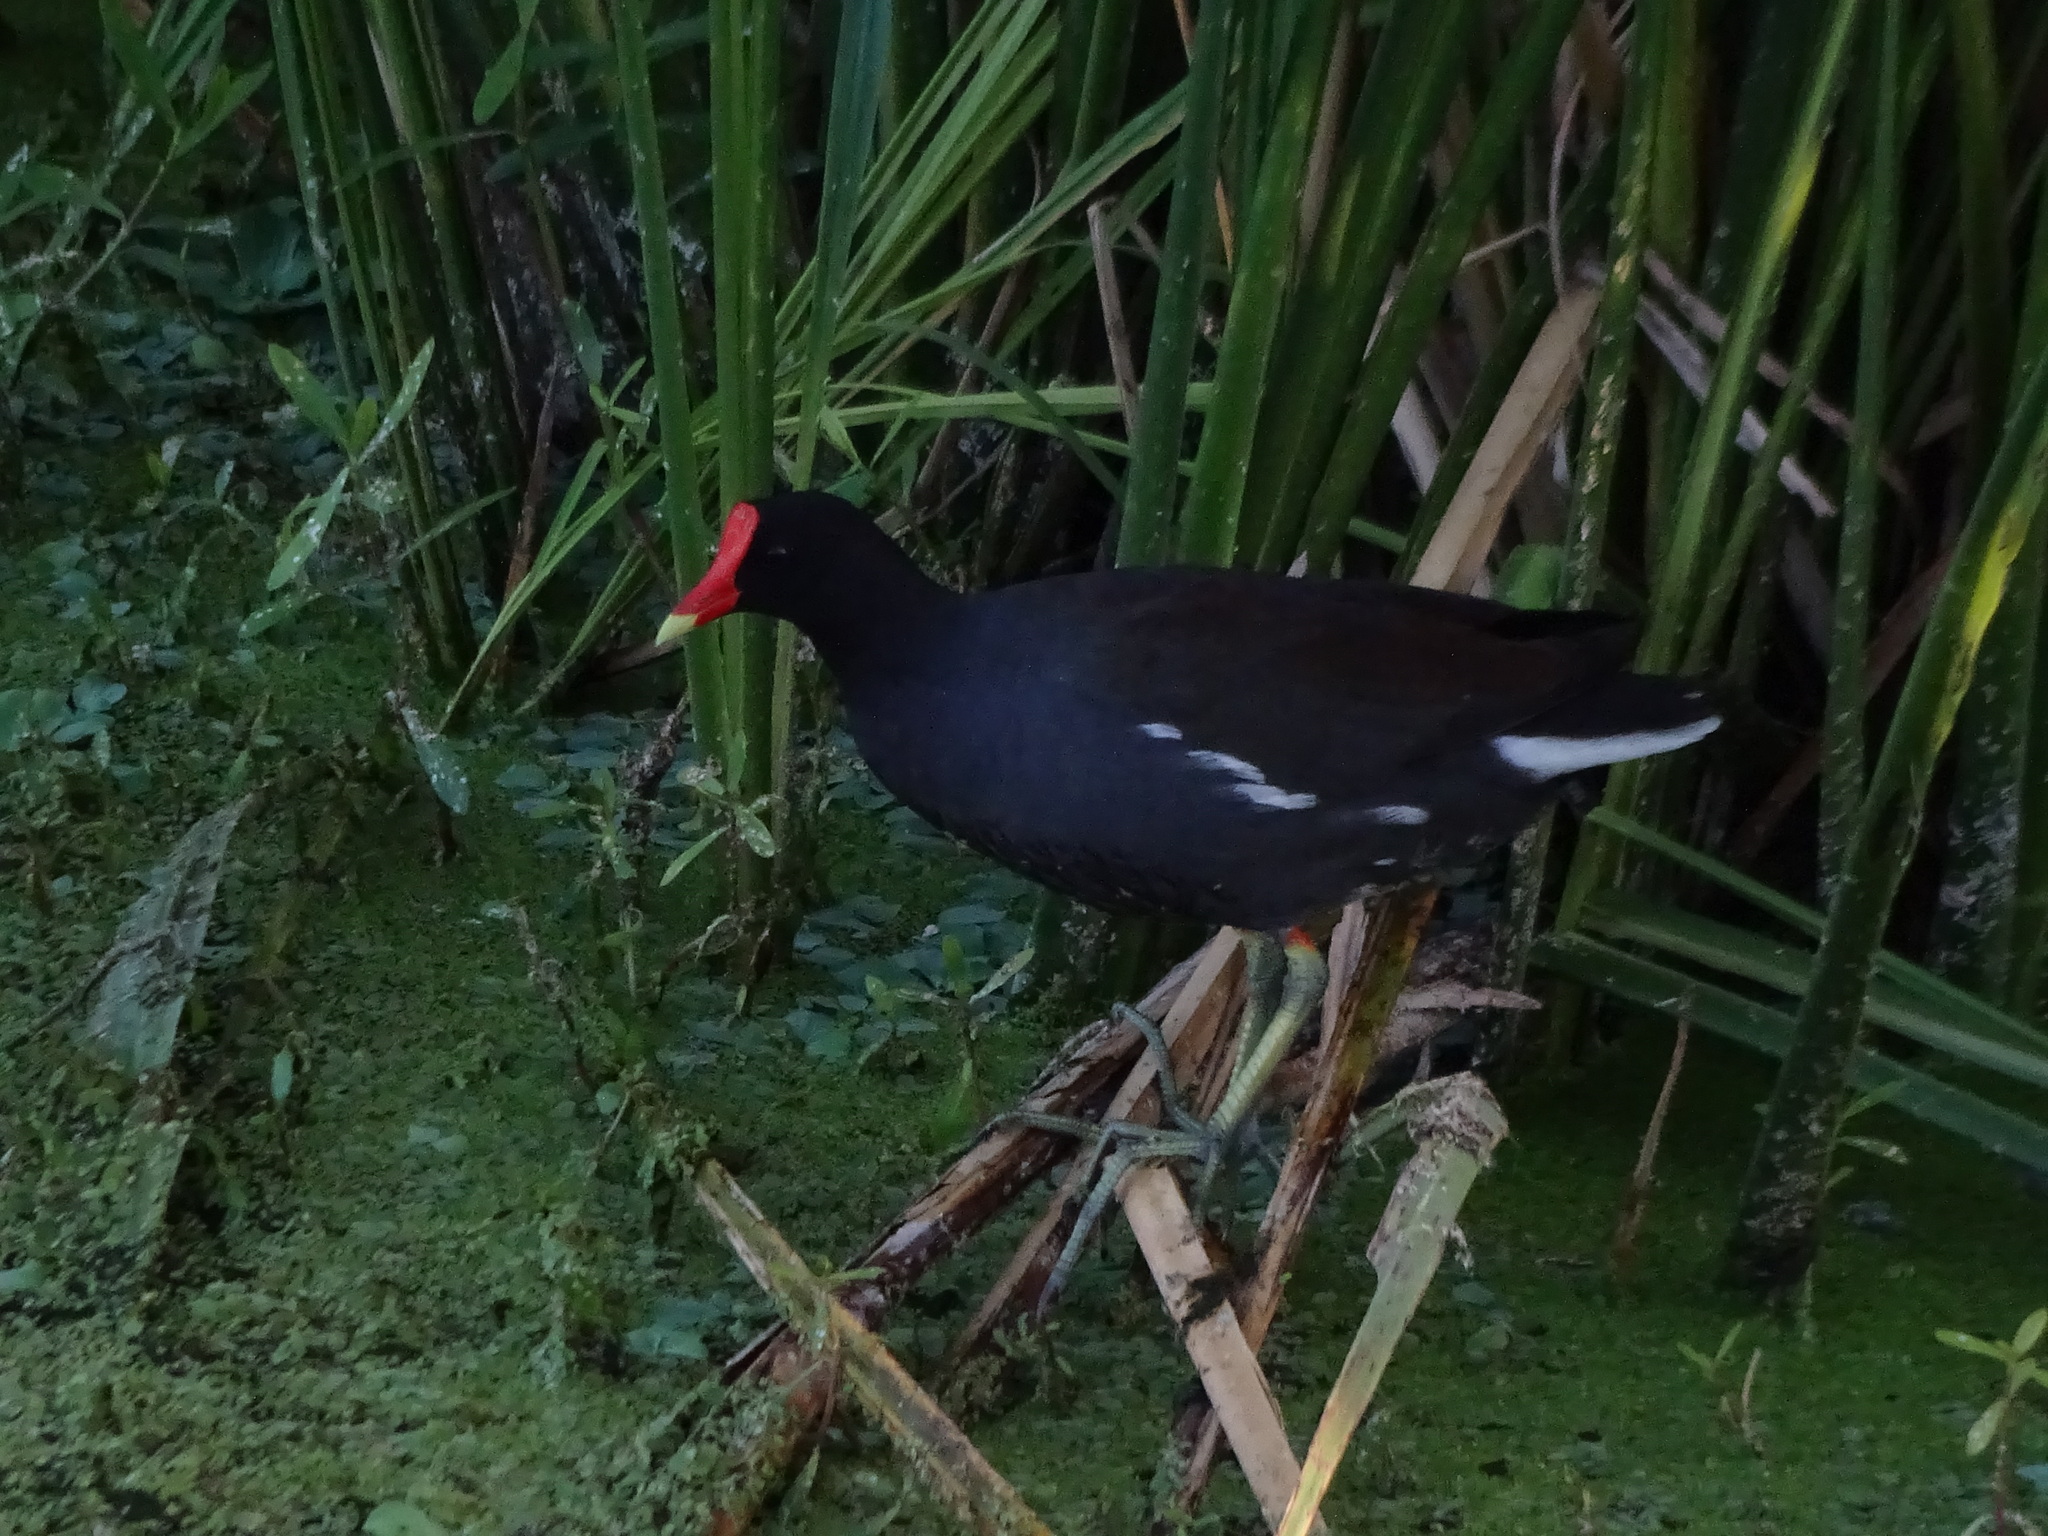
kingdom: Animalia
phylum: Chordata
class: Aves
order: Gruiformes
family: Rallidae
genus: Gallinula
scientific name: Gallinula chloropus
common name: Common moorhen
